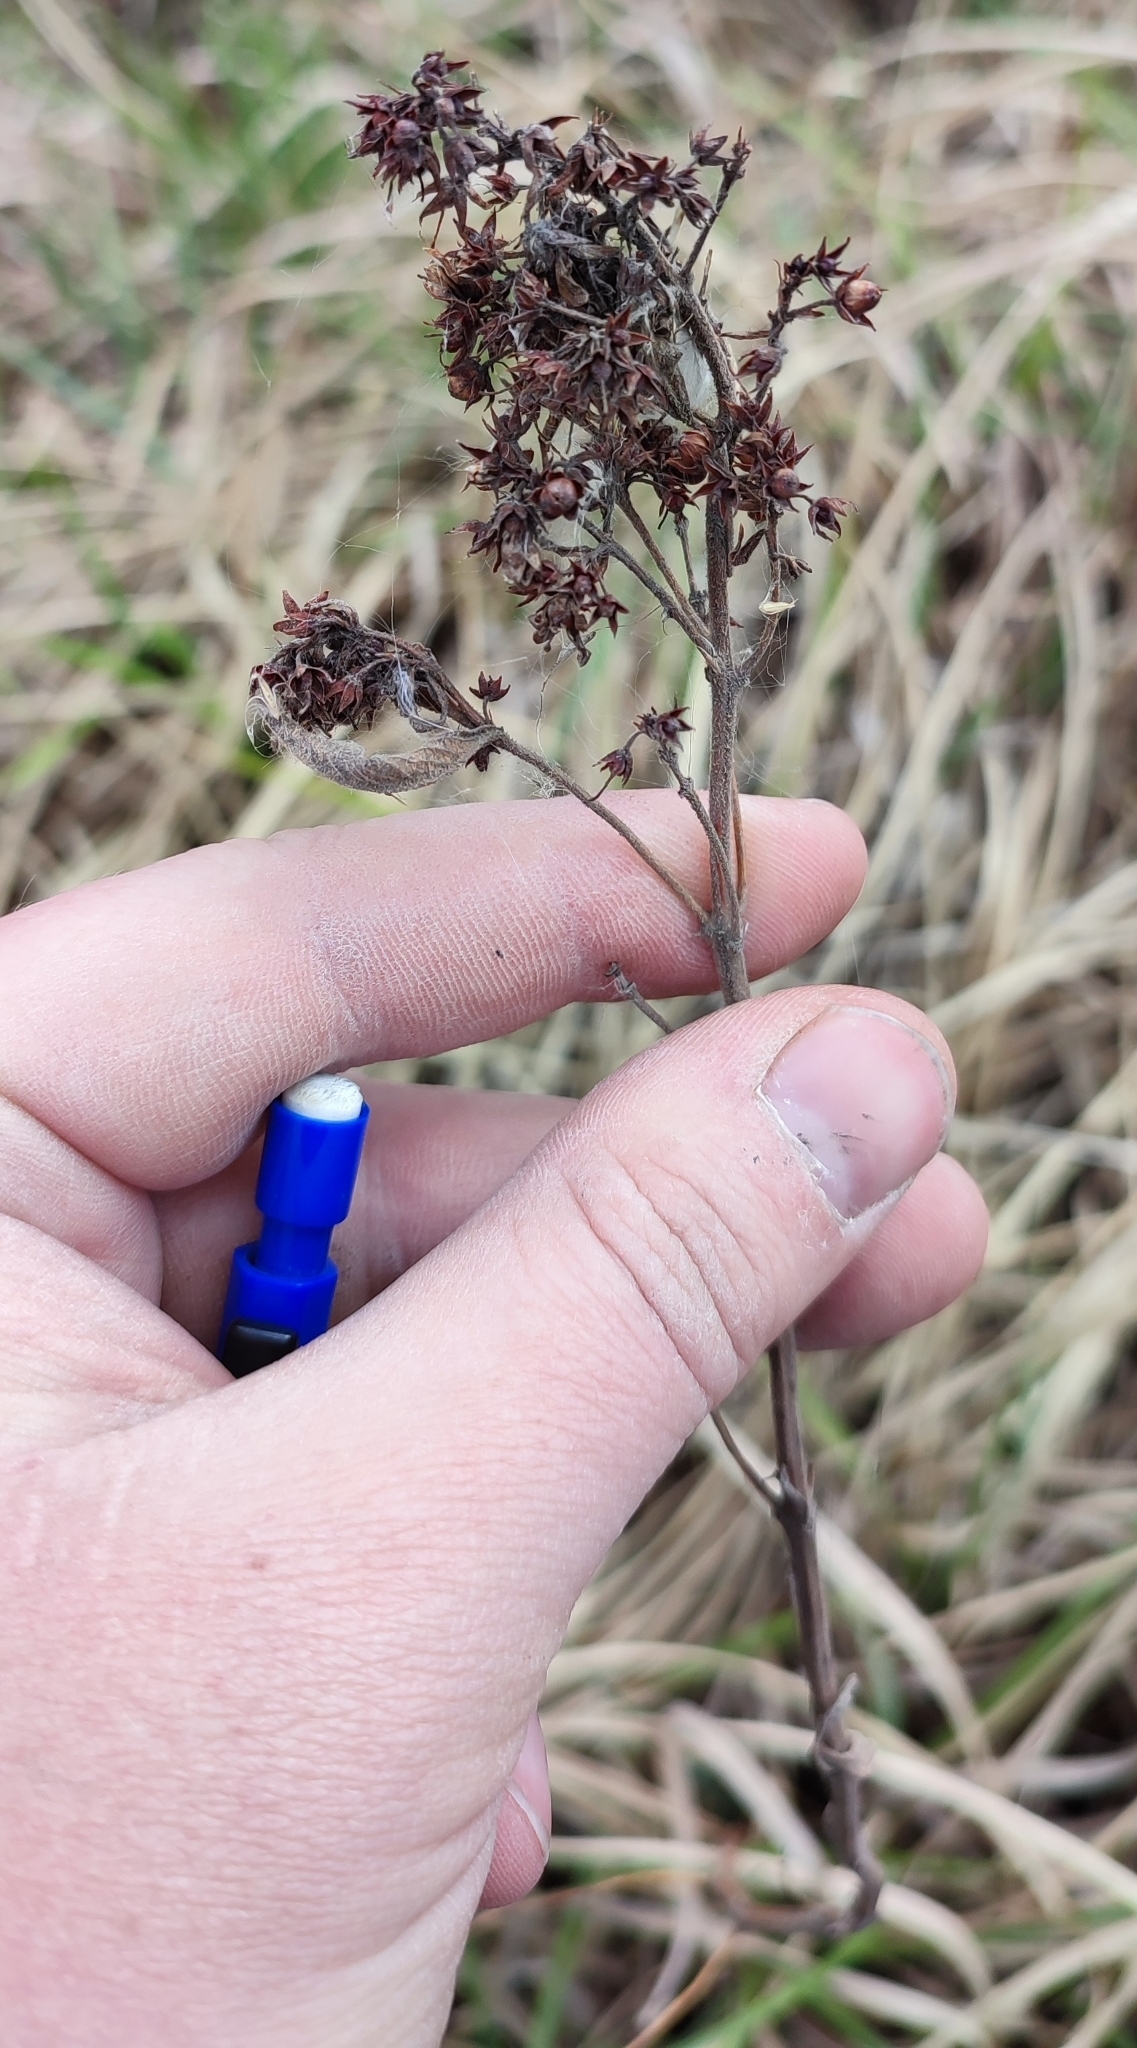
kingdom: Plantae
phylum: Tracheophyta
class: Magnoliopsida
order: Ericales
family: Primulaceae
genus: Lysimachia
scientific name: Lysimachia vulgaris
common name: Yellow loosestrife
